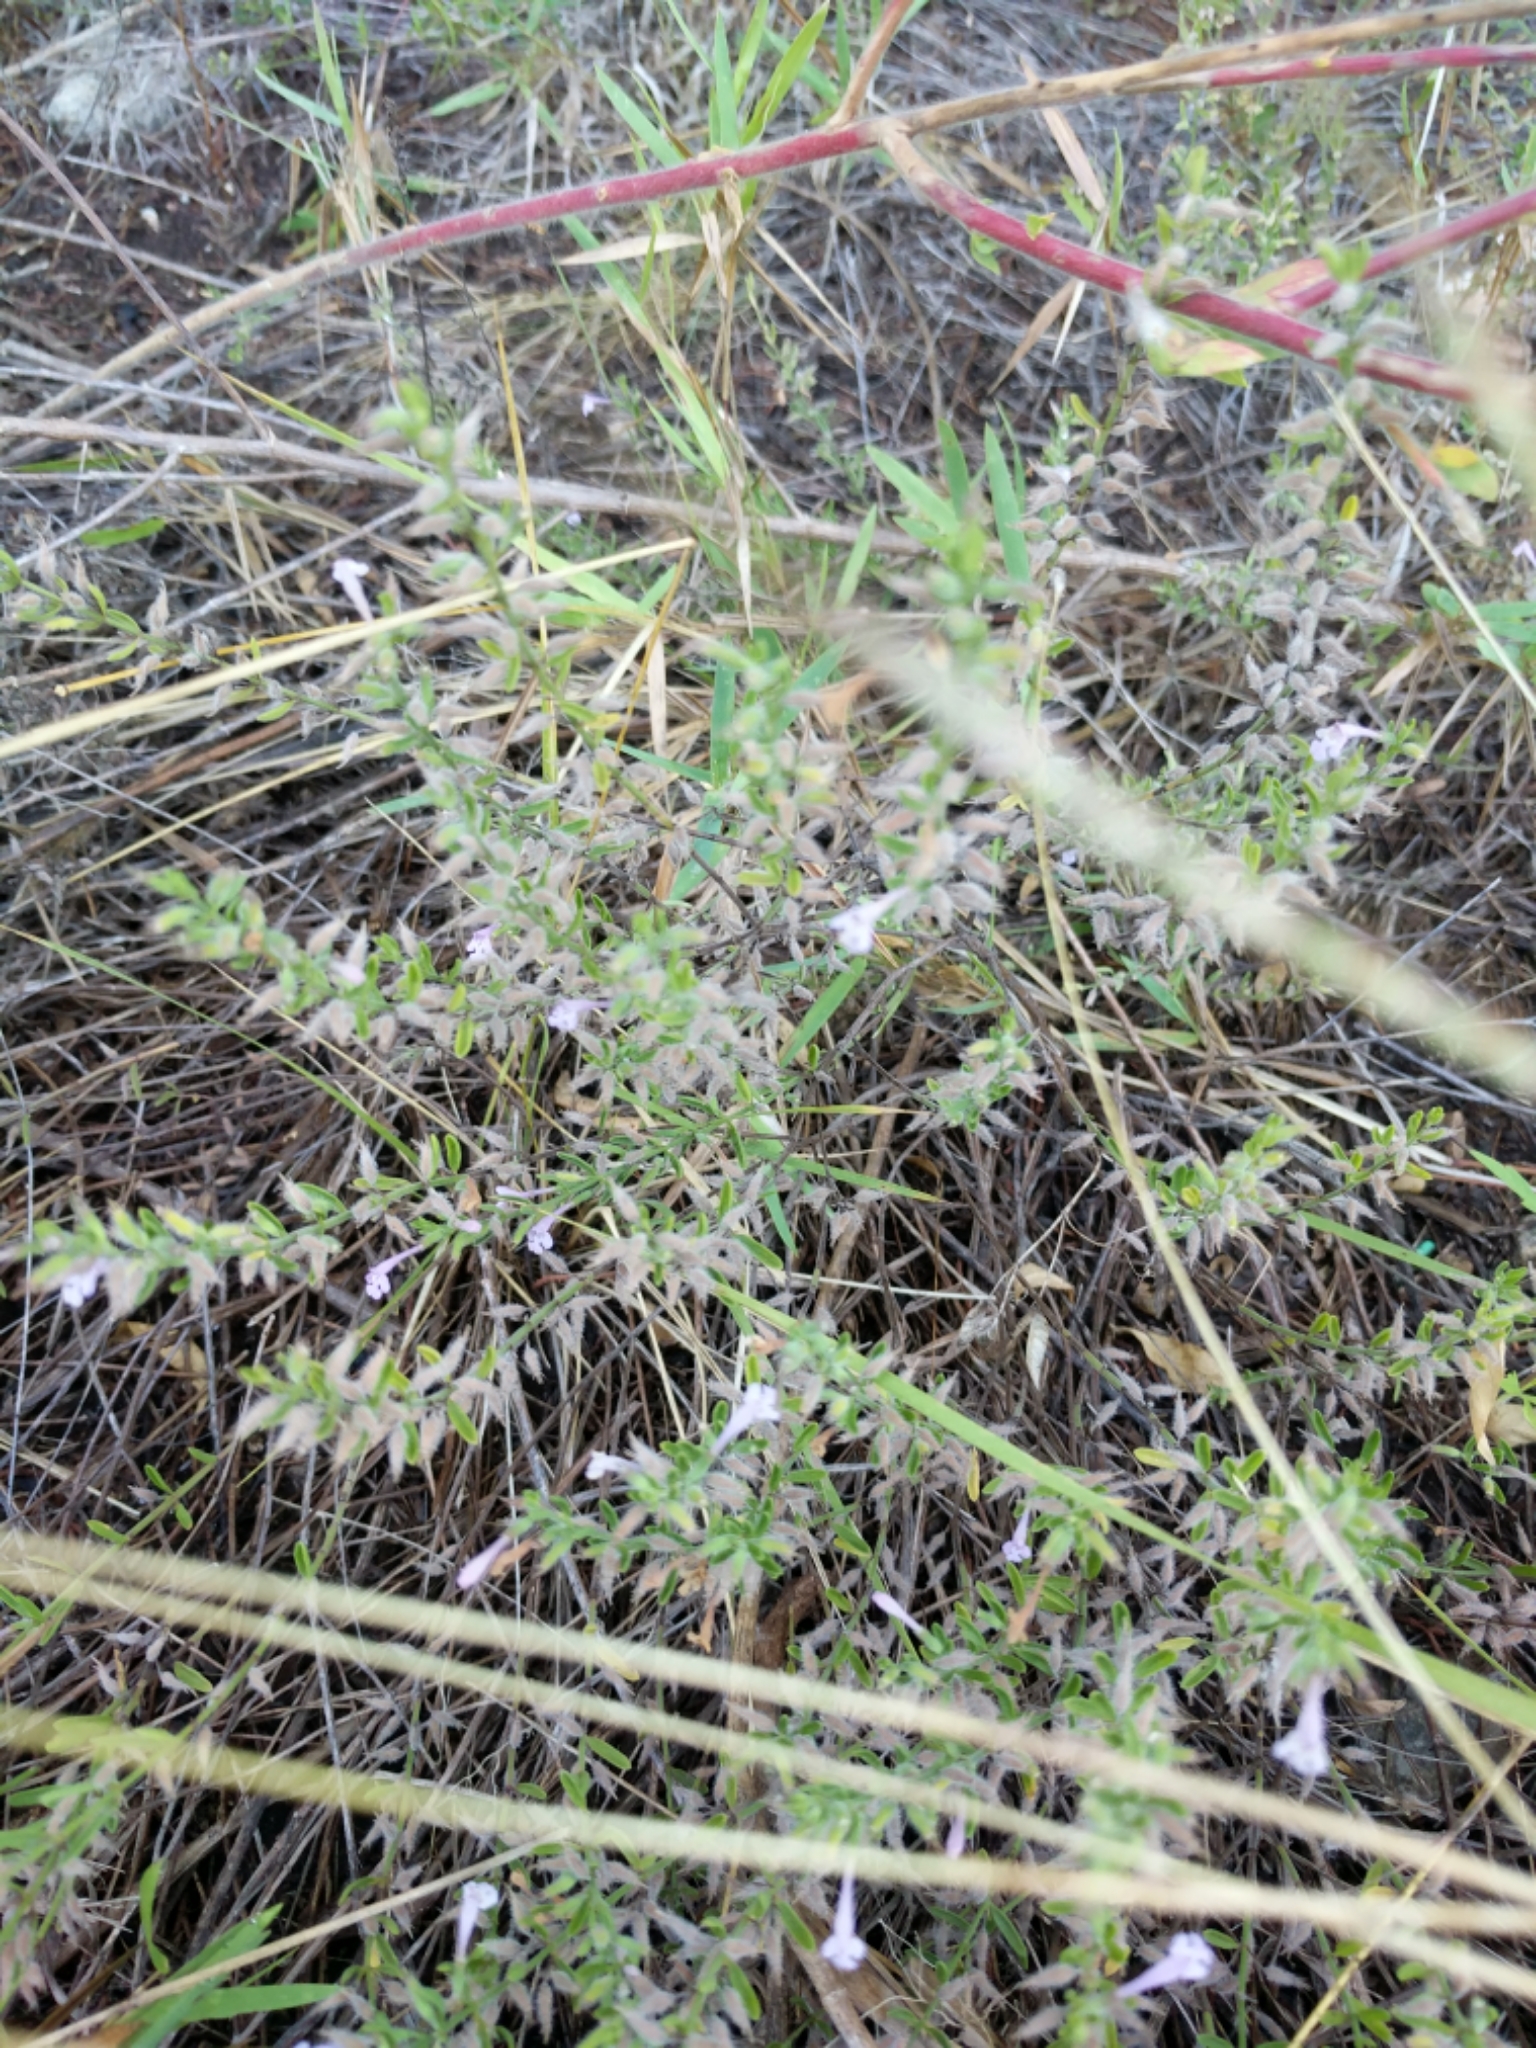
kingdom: Plantae
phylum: Tracheophyta
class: Magnoliopsida
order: Lamiales
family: Lamiaceae
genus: Hedeoma
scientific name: Hedeoma reverchonii
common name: Reverchon's false penny-royal
